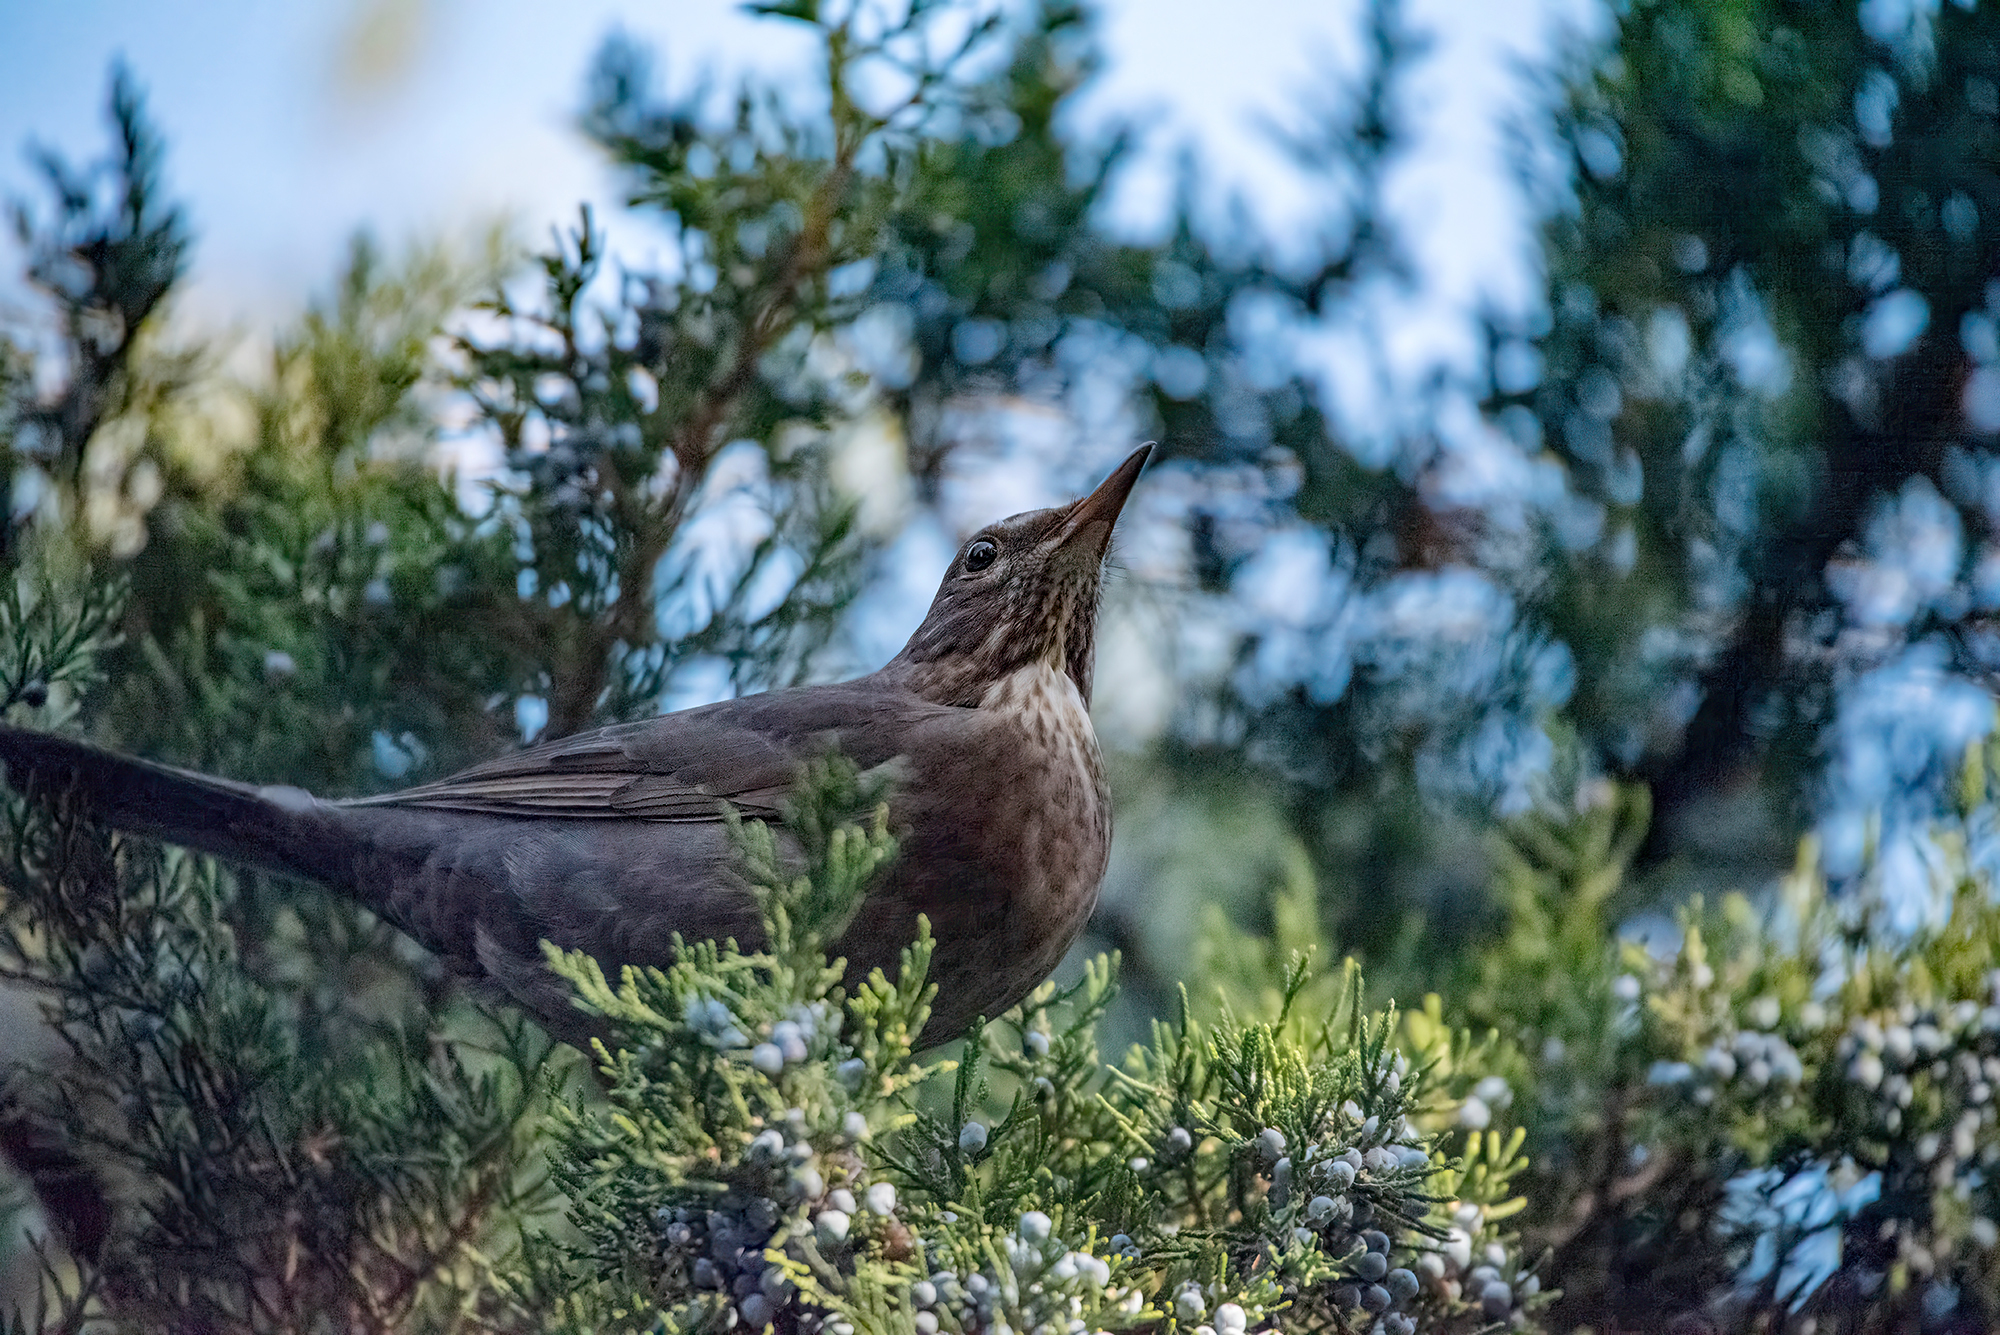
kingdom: Animalia
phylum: Chordata
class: Aves
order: Passeriformes
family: Turdidae
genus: Turdus
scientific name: Turdus merula
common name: Common blackbird
